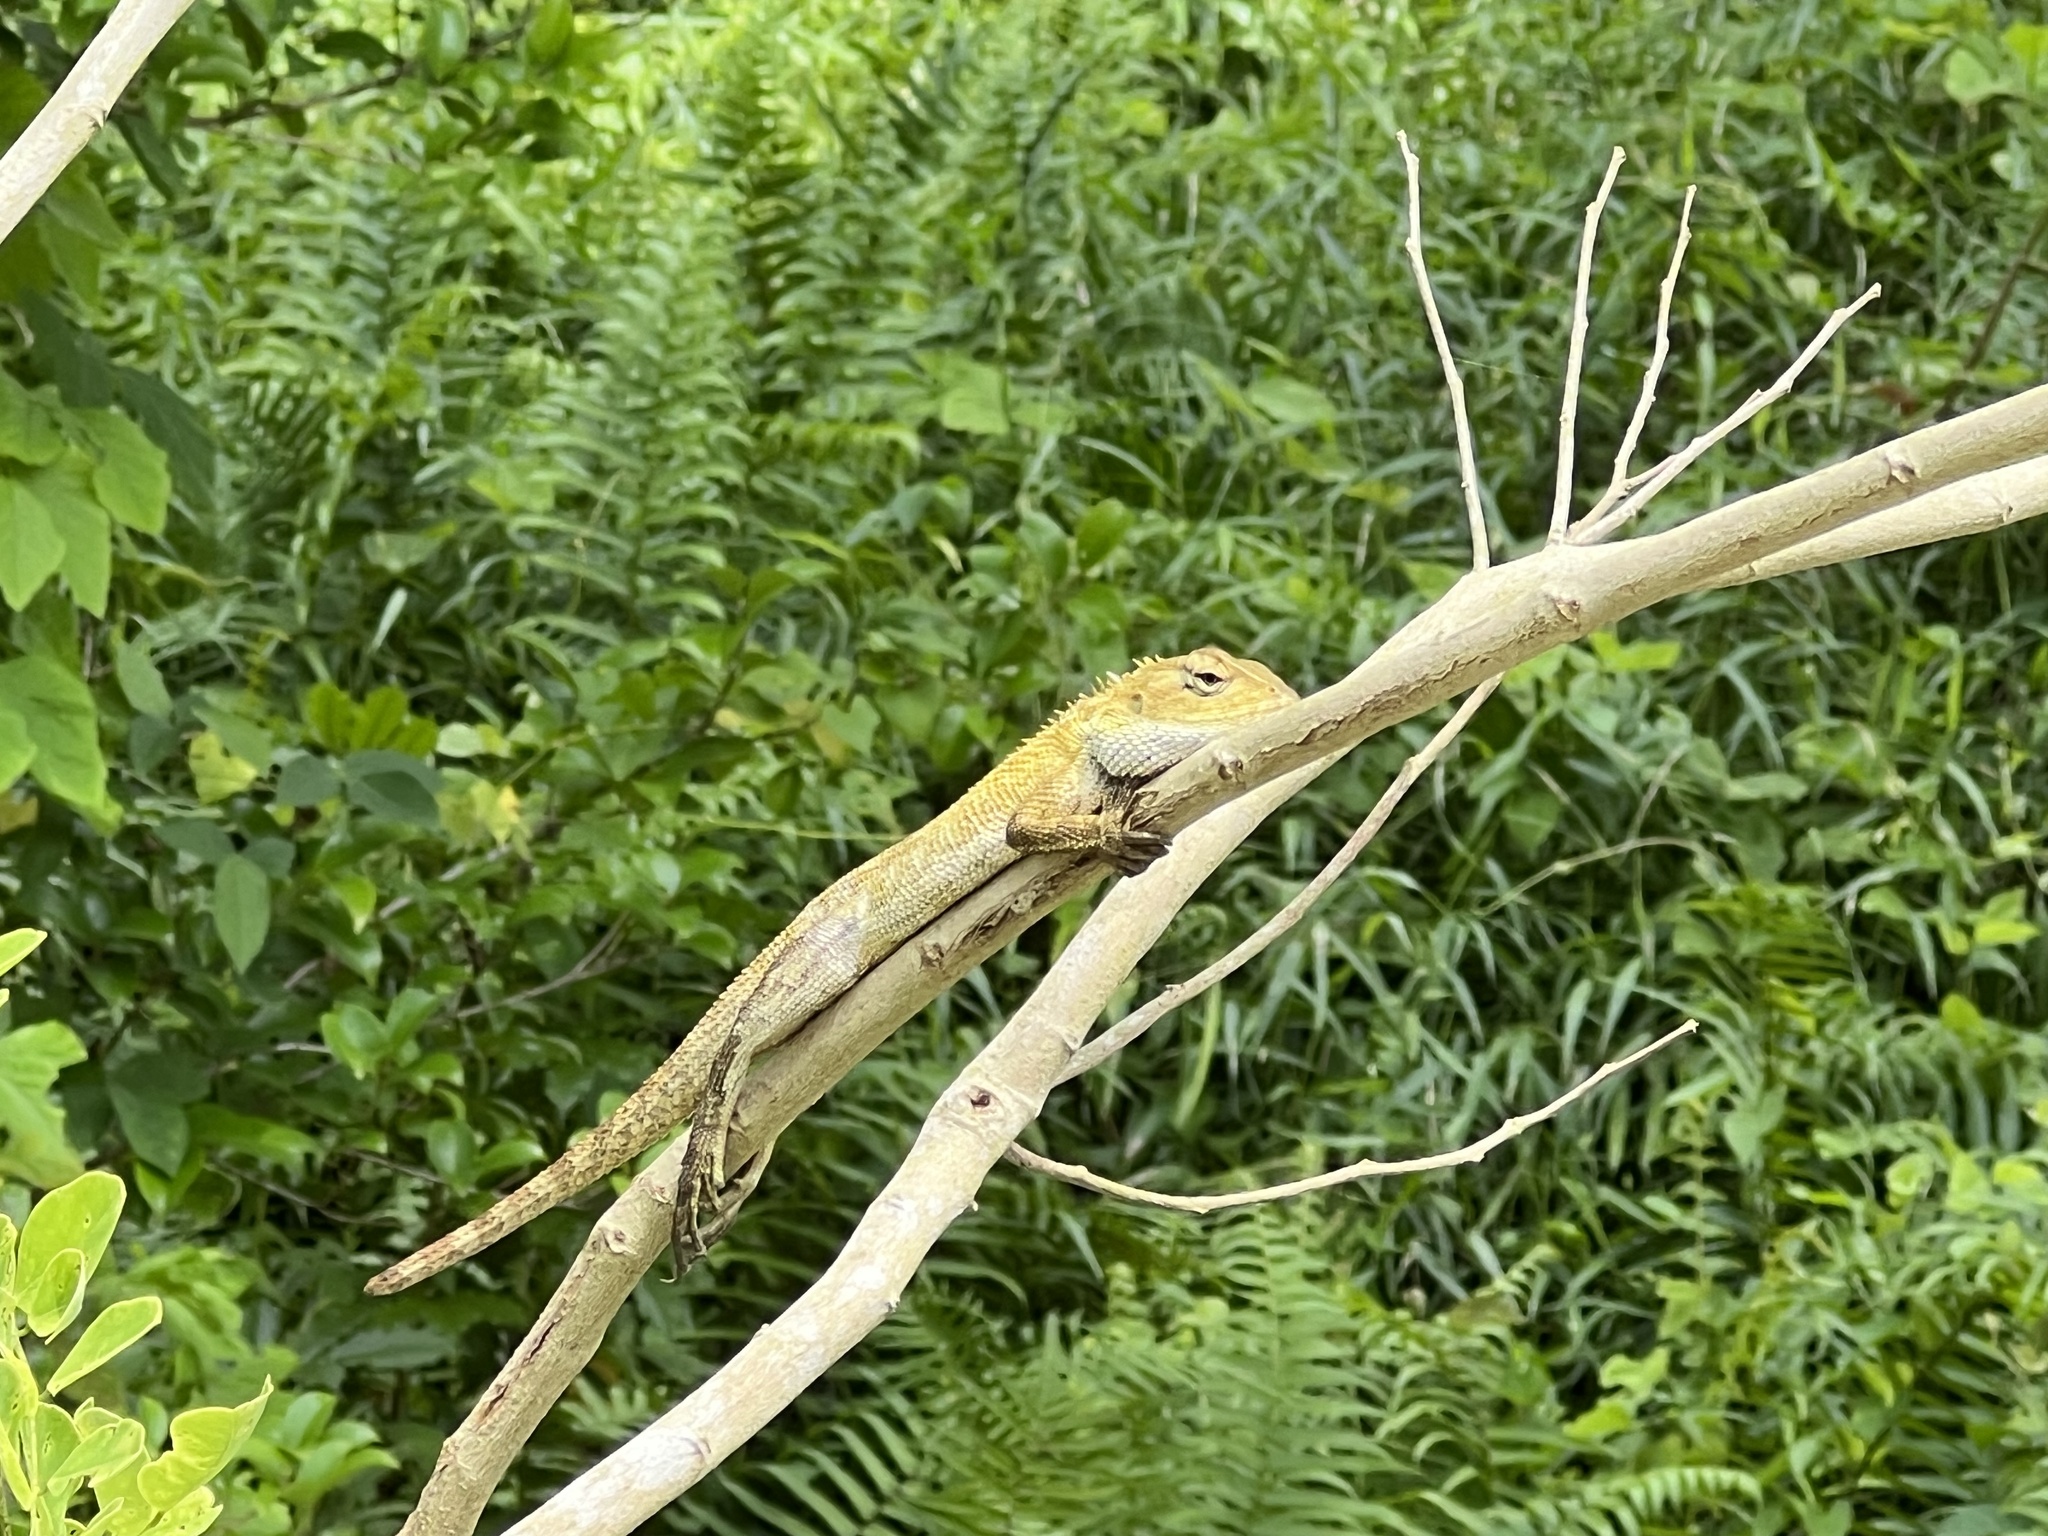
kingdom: Animalia
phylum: Chordata
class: Squamata
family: Agamidae
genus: Calotes
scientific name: Calotes versicolor
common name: Oriental garden lizard
